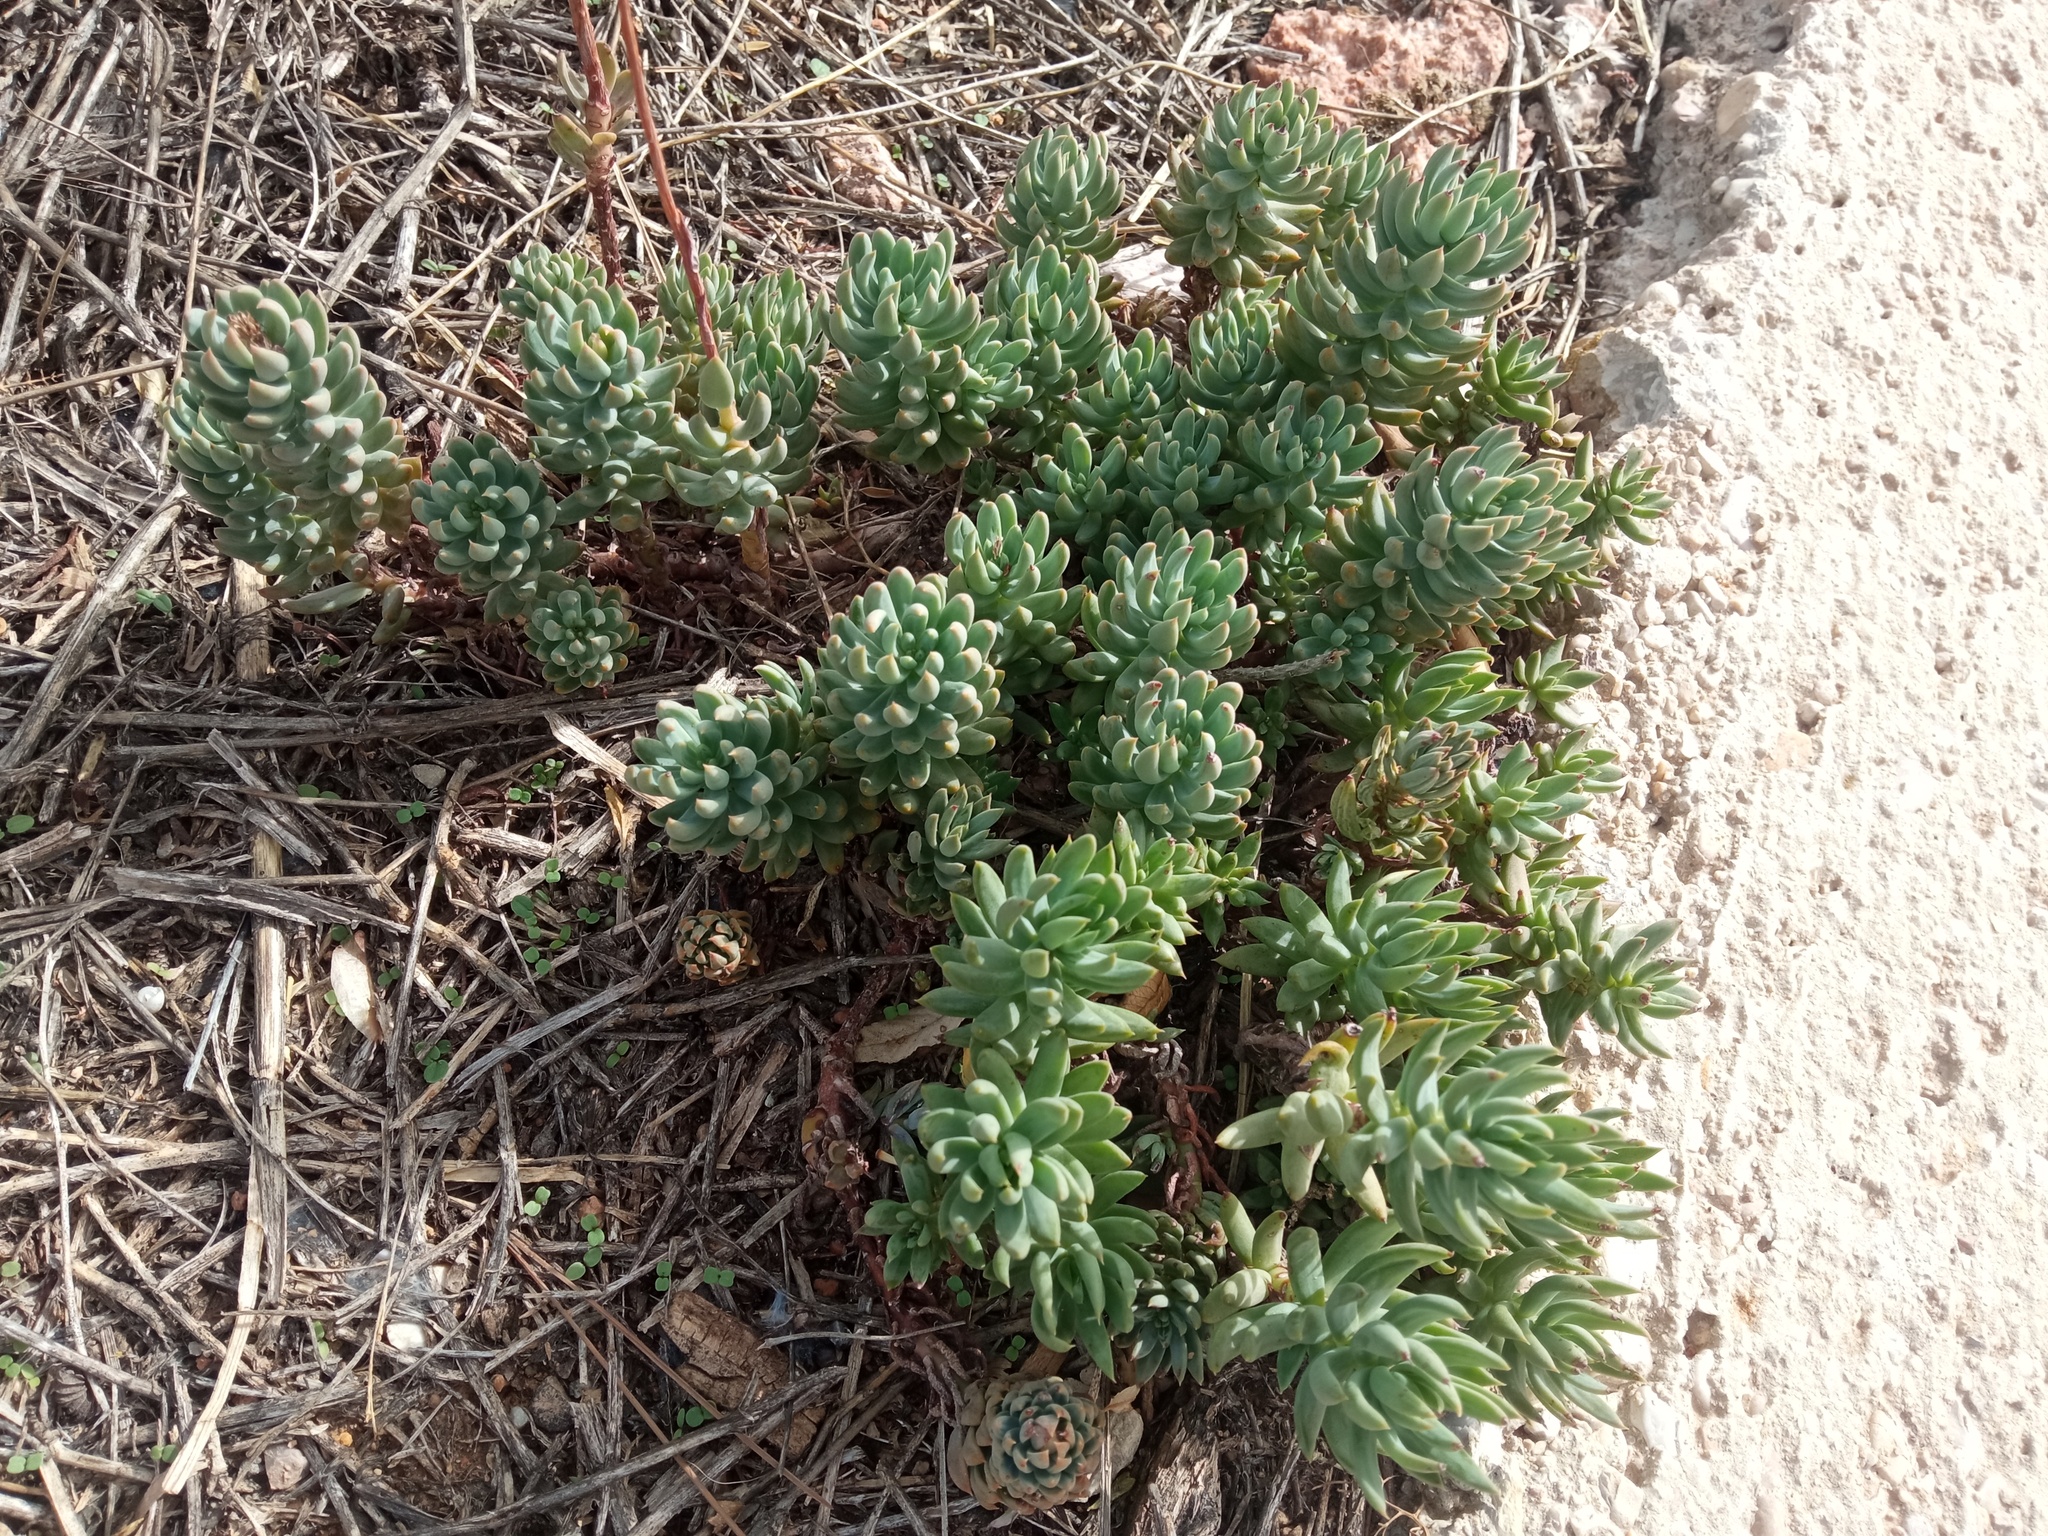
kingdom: Plantae
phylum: Tracheophyta
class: Magnoliopsida
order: Saxifragales
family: Crassulaceae
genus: Petrosedum
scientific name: Petrosedum sediforme
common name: Pale stonecrop
